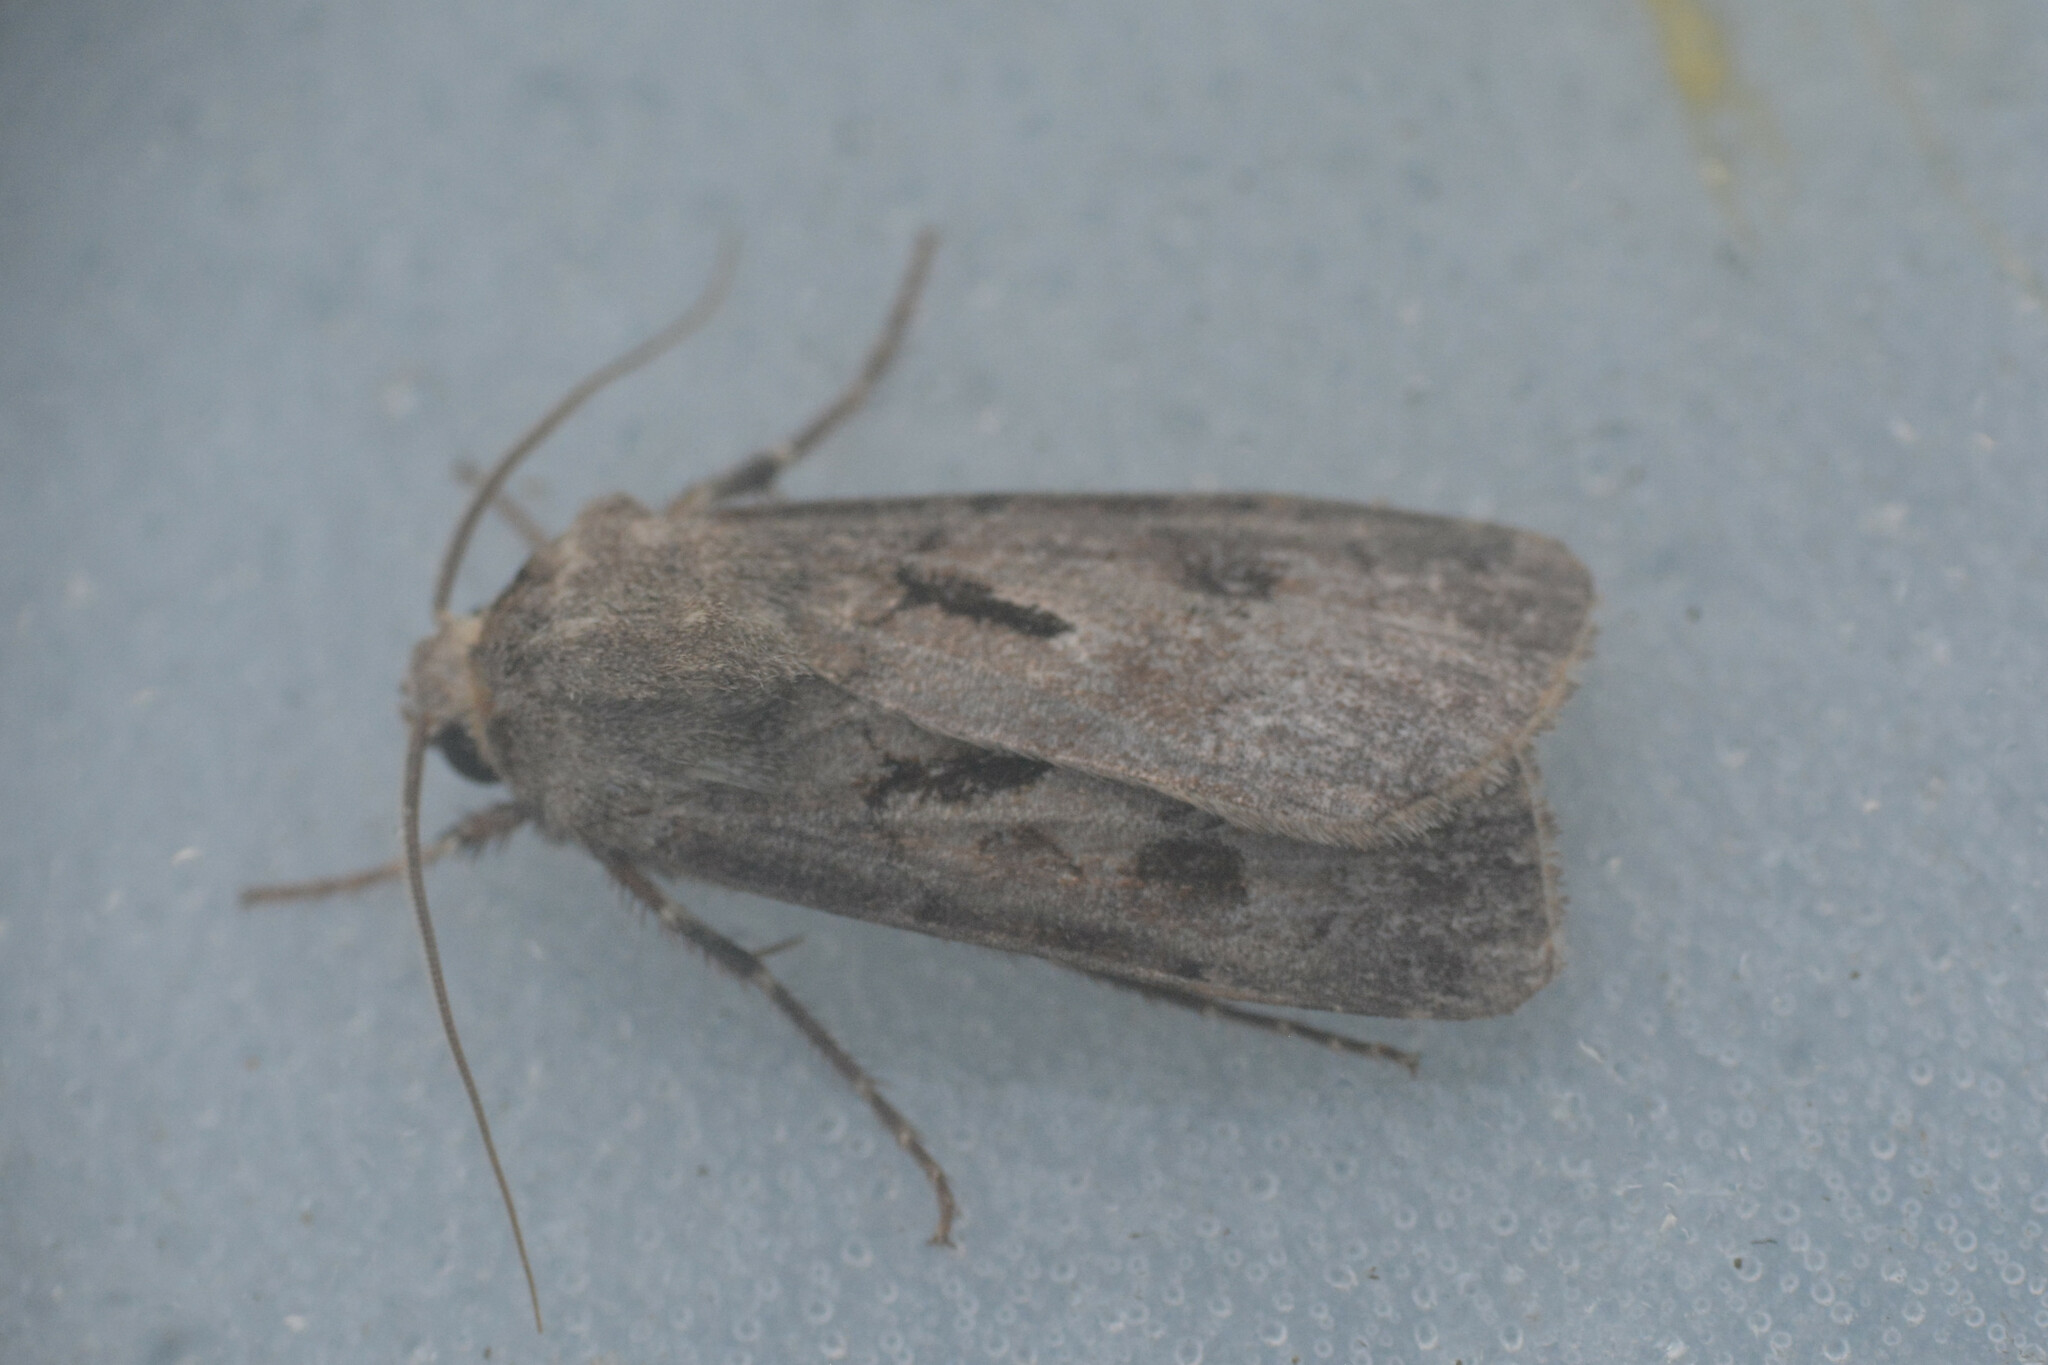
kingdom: Animalia
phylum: Arthropoda
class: Insecta
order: Lepidoptera
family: Noctuidae
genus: Agrotis
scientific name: Agrotis exclamationis
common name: Heart and dart
